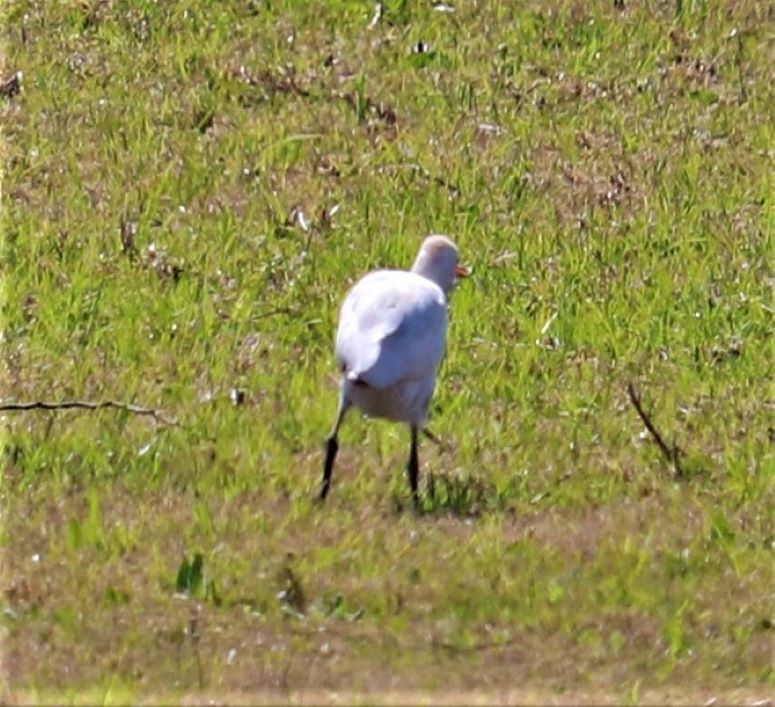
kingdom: Animalia
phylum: Chordata
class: Aves
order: Pelecaniformes
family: Ardeidae
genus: Bubulcus
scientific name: Bubulcus ibis
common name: Cattle egret
